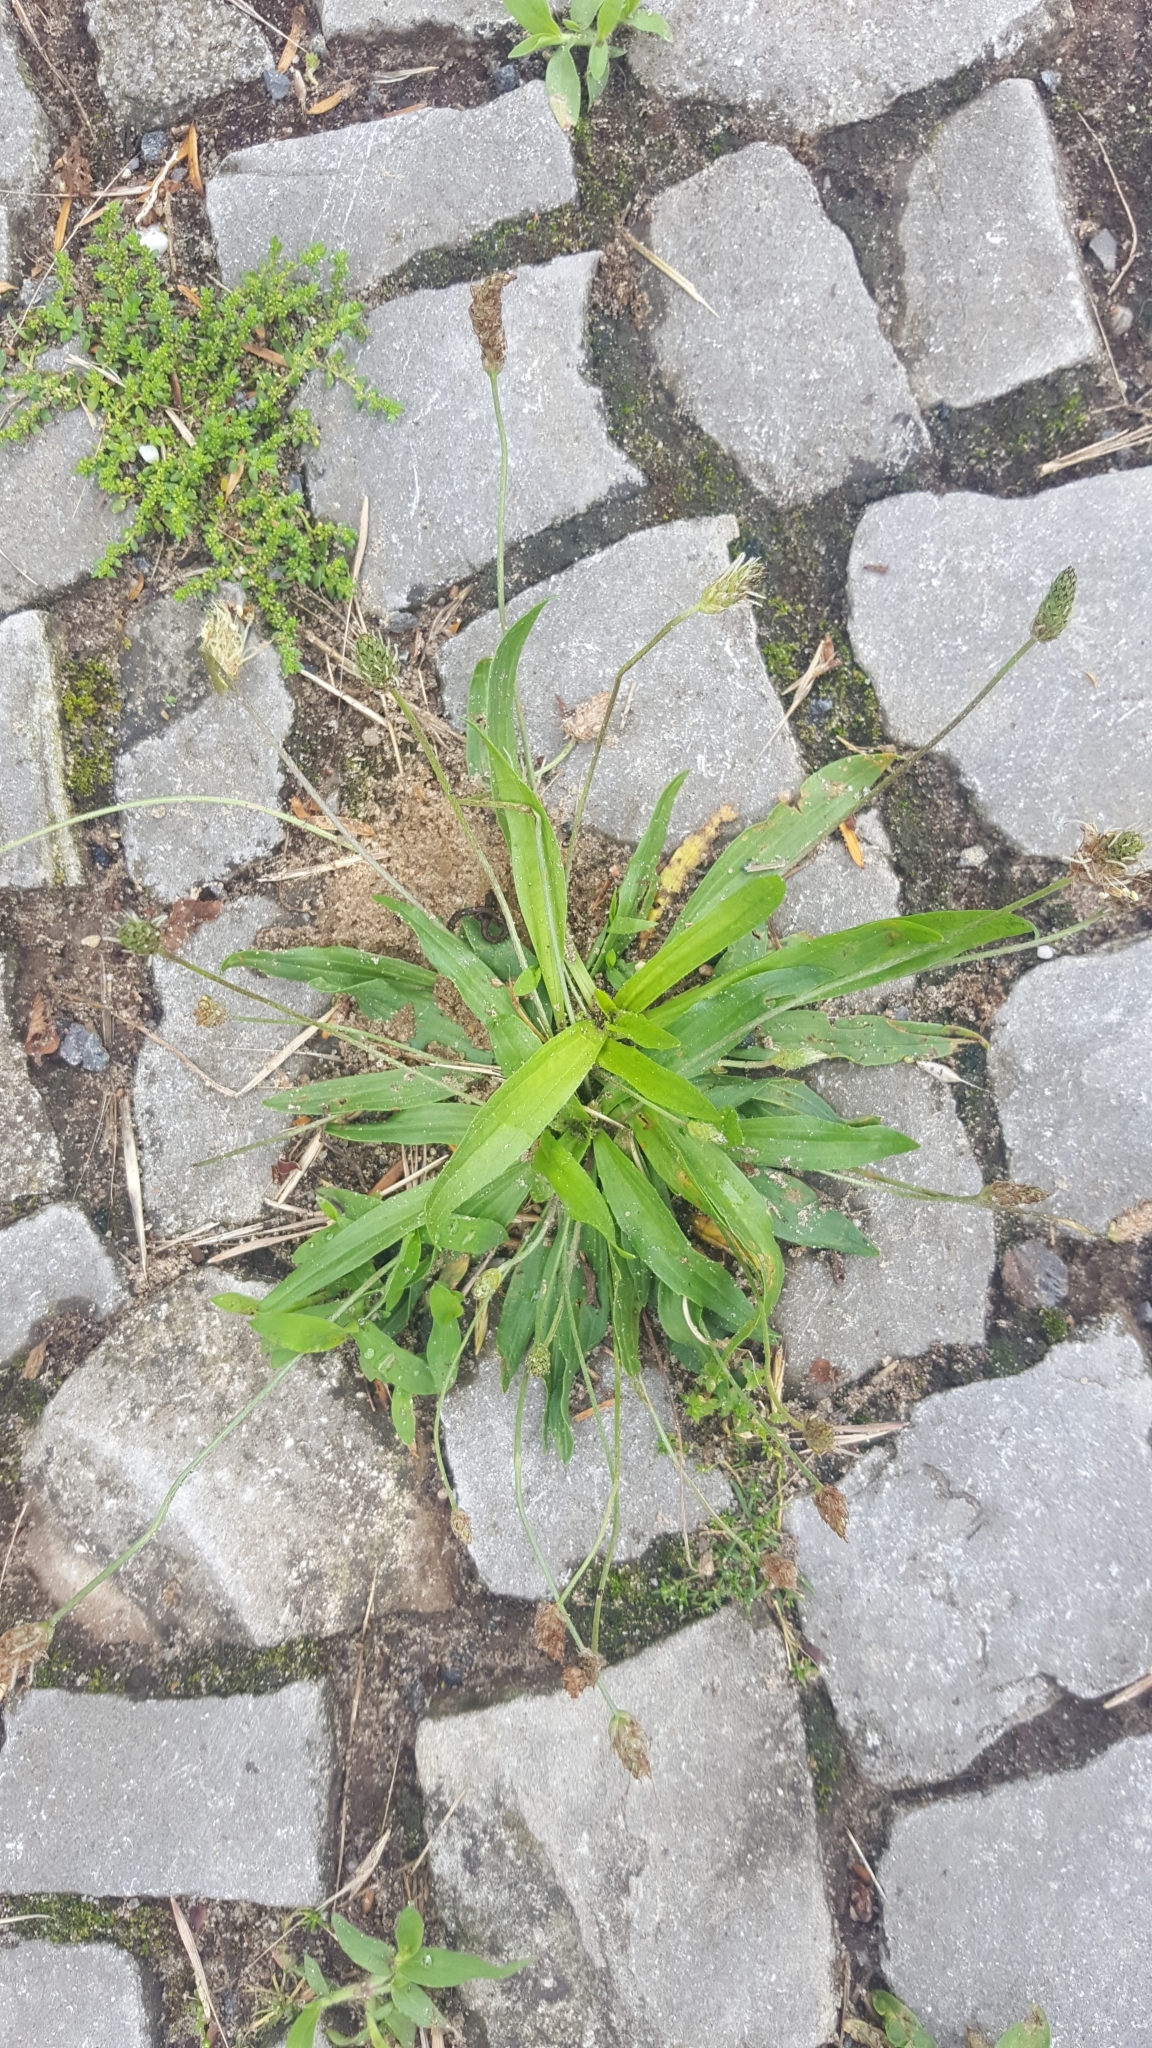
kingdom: Plantae
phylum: Tracheophyta
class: Magnoliopsida
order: Lamiales
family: Plantaginaceae
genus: Plantago
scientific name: Plantago lanceolata
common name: Ribwort plantain
